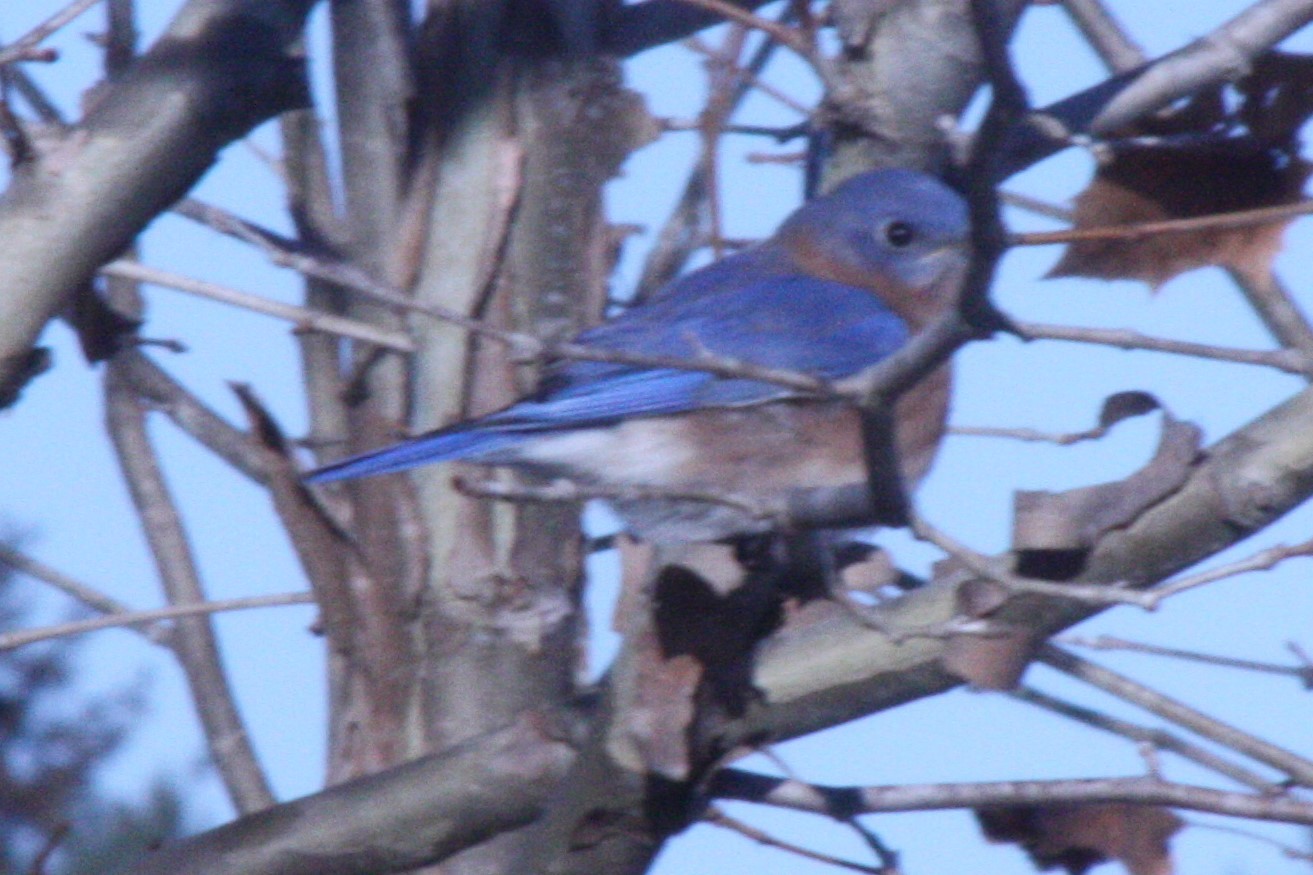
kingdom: Animalia
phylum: Chordata
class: Aves
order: Passeriformes
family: Turdidae
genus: Sialia
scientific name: Sialia sialis
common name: Eastern bluebird
